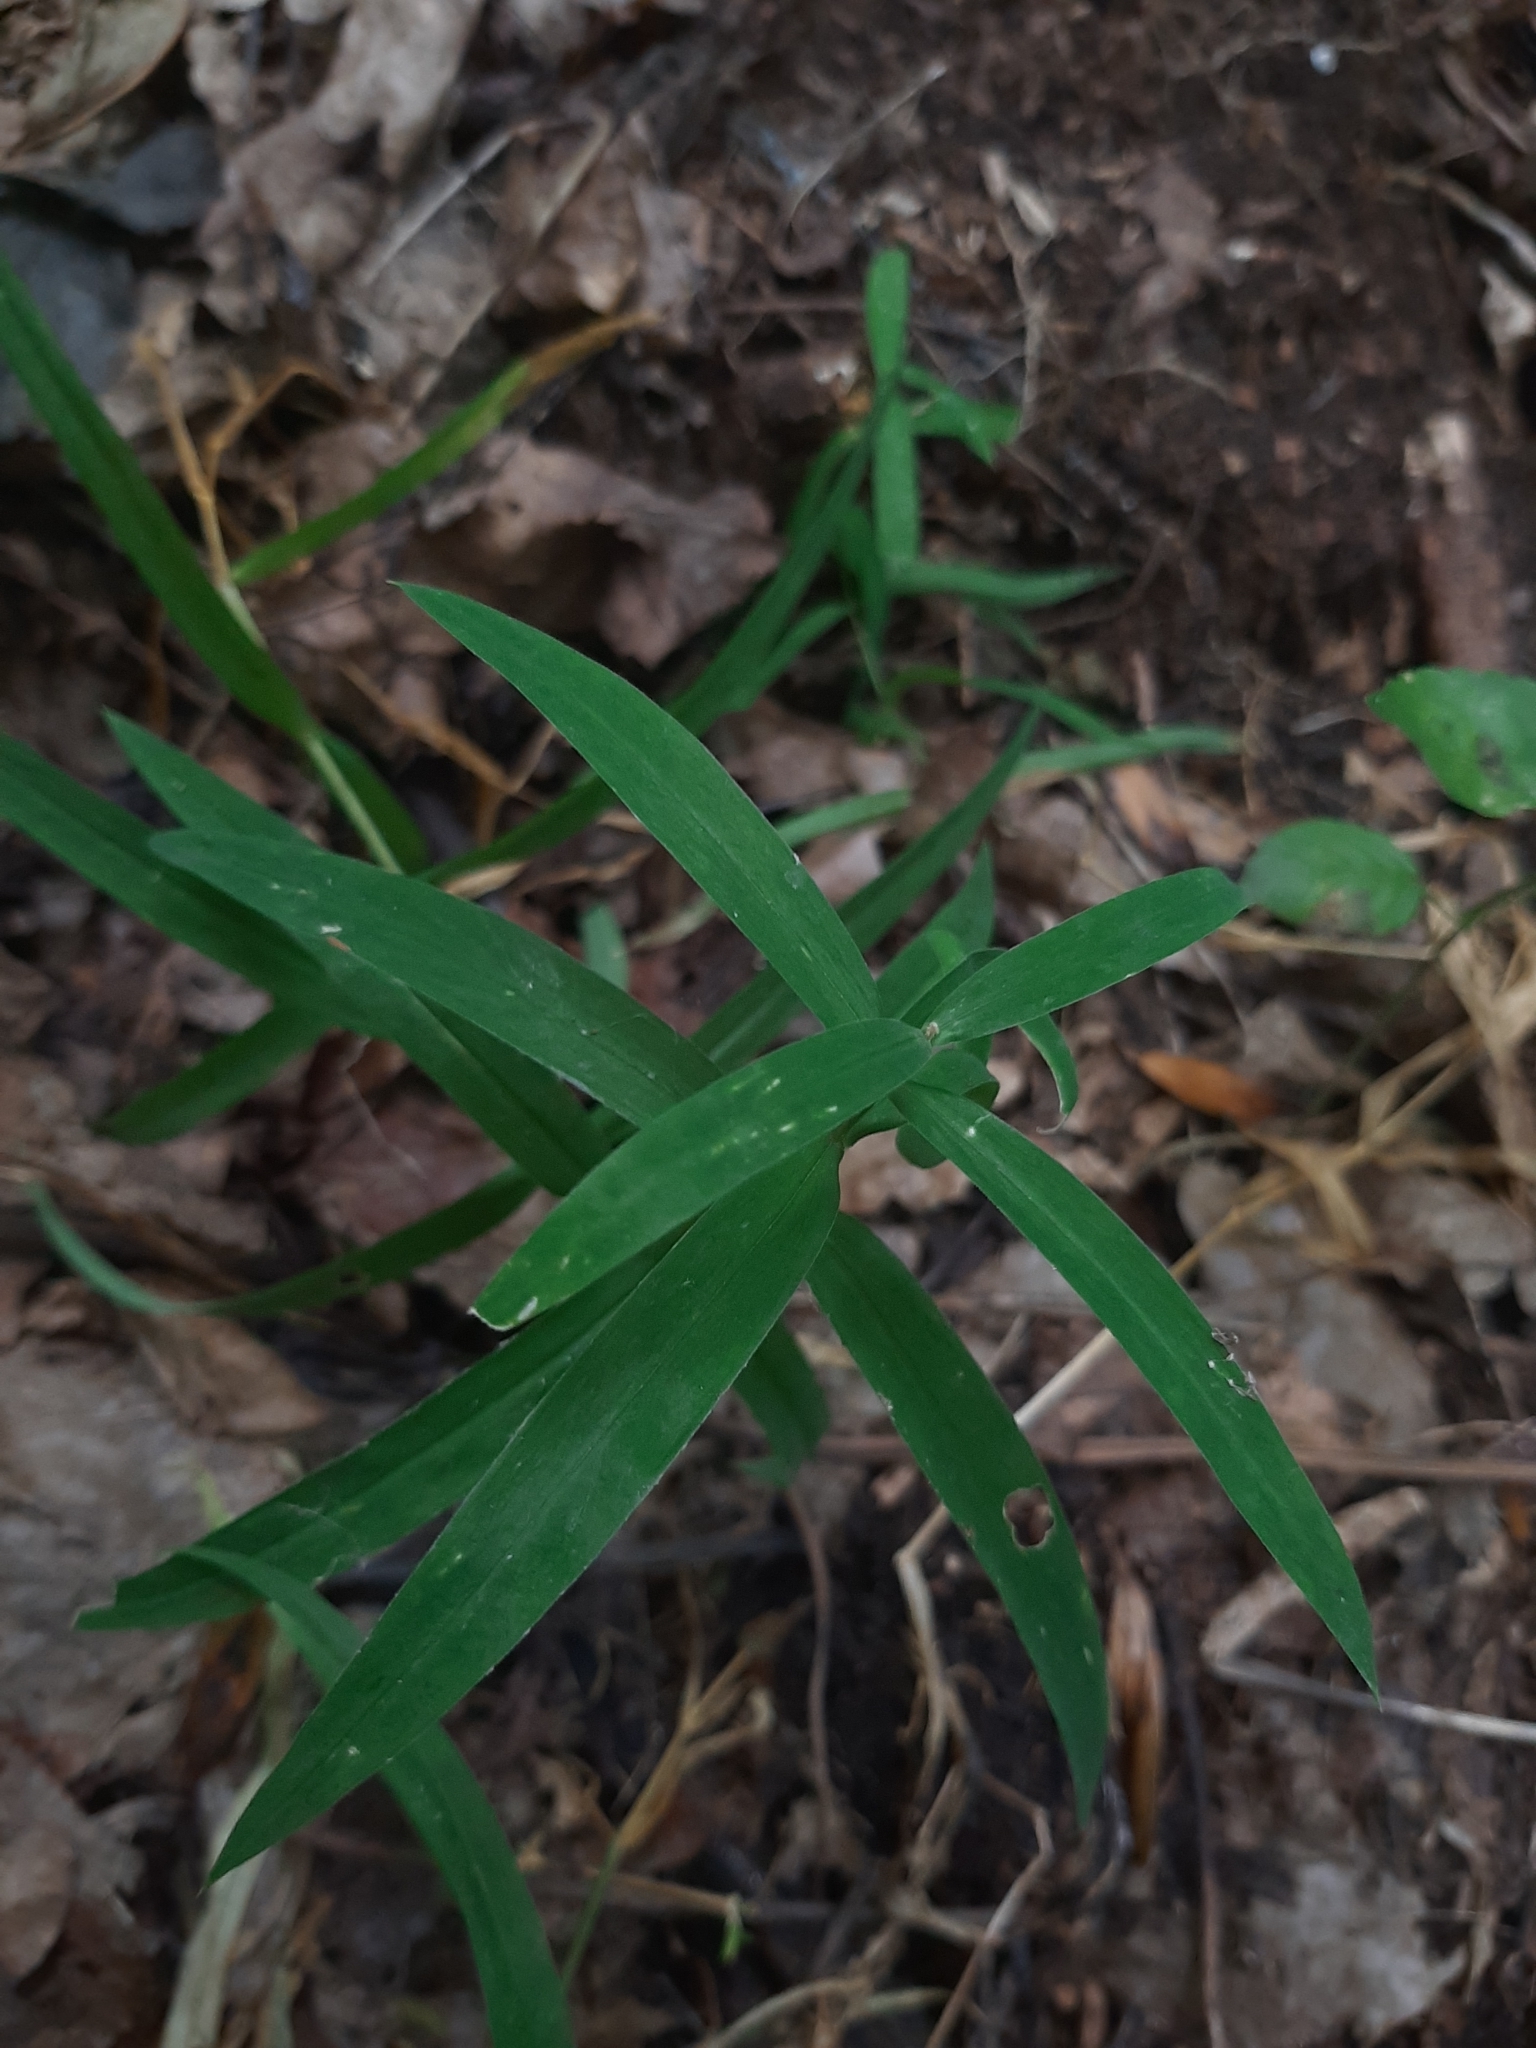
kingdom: Plantae
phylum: Tracheophyta
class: Magnoliopsida
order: Caryophyllales
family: Caryophyllaceae
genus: Rabelera
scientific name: Rabelera holostea
